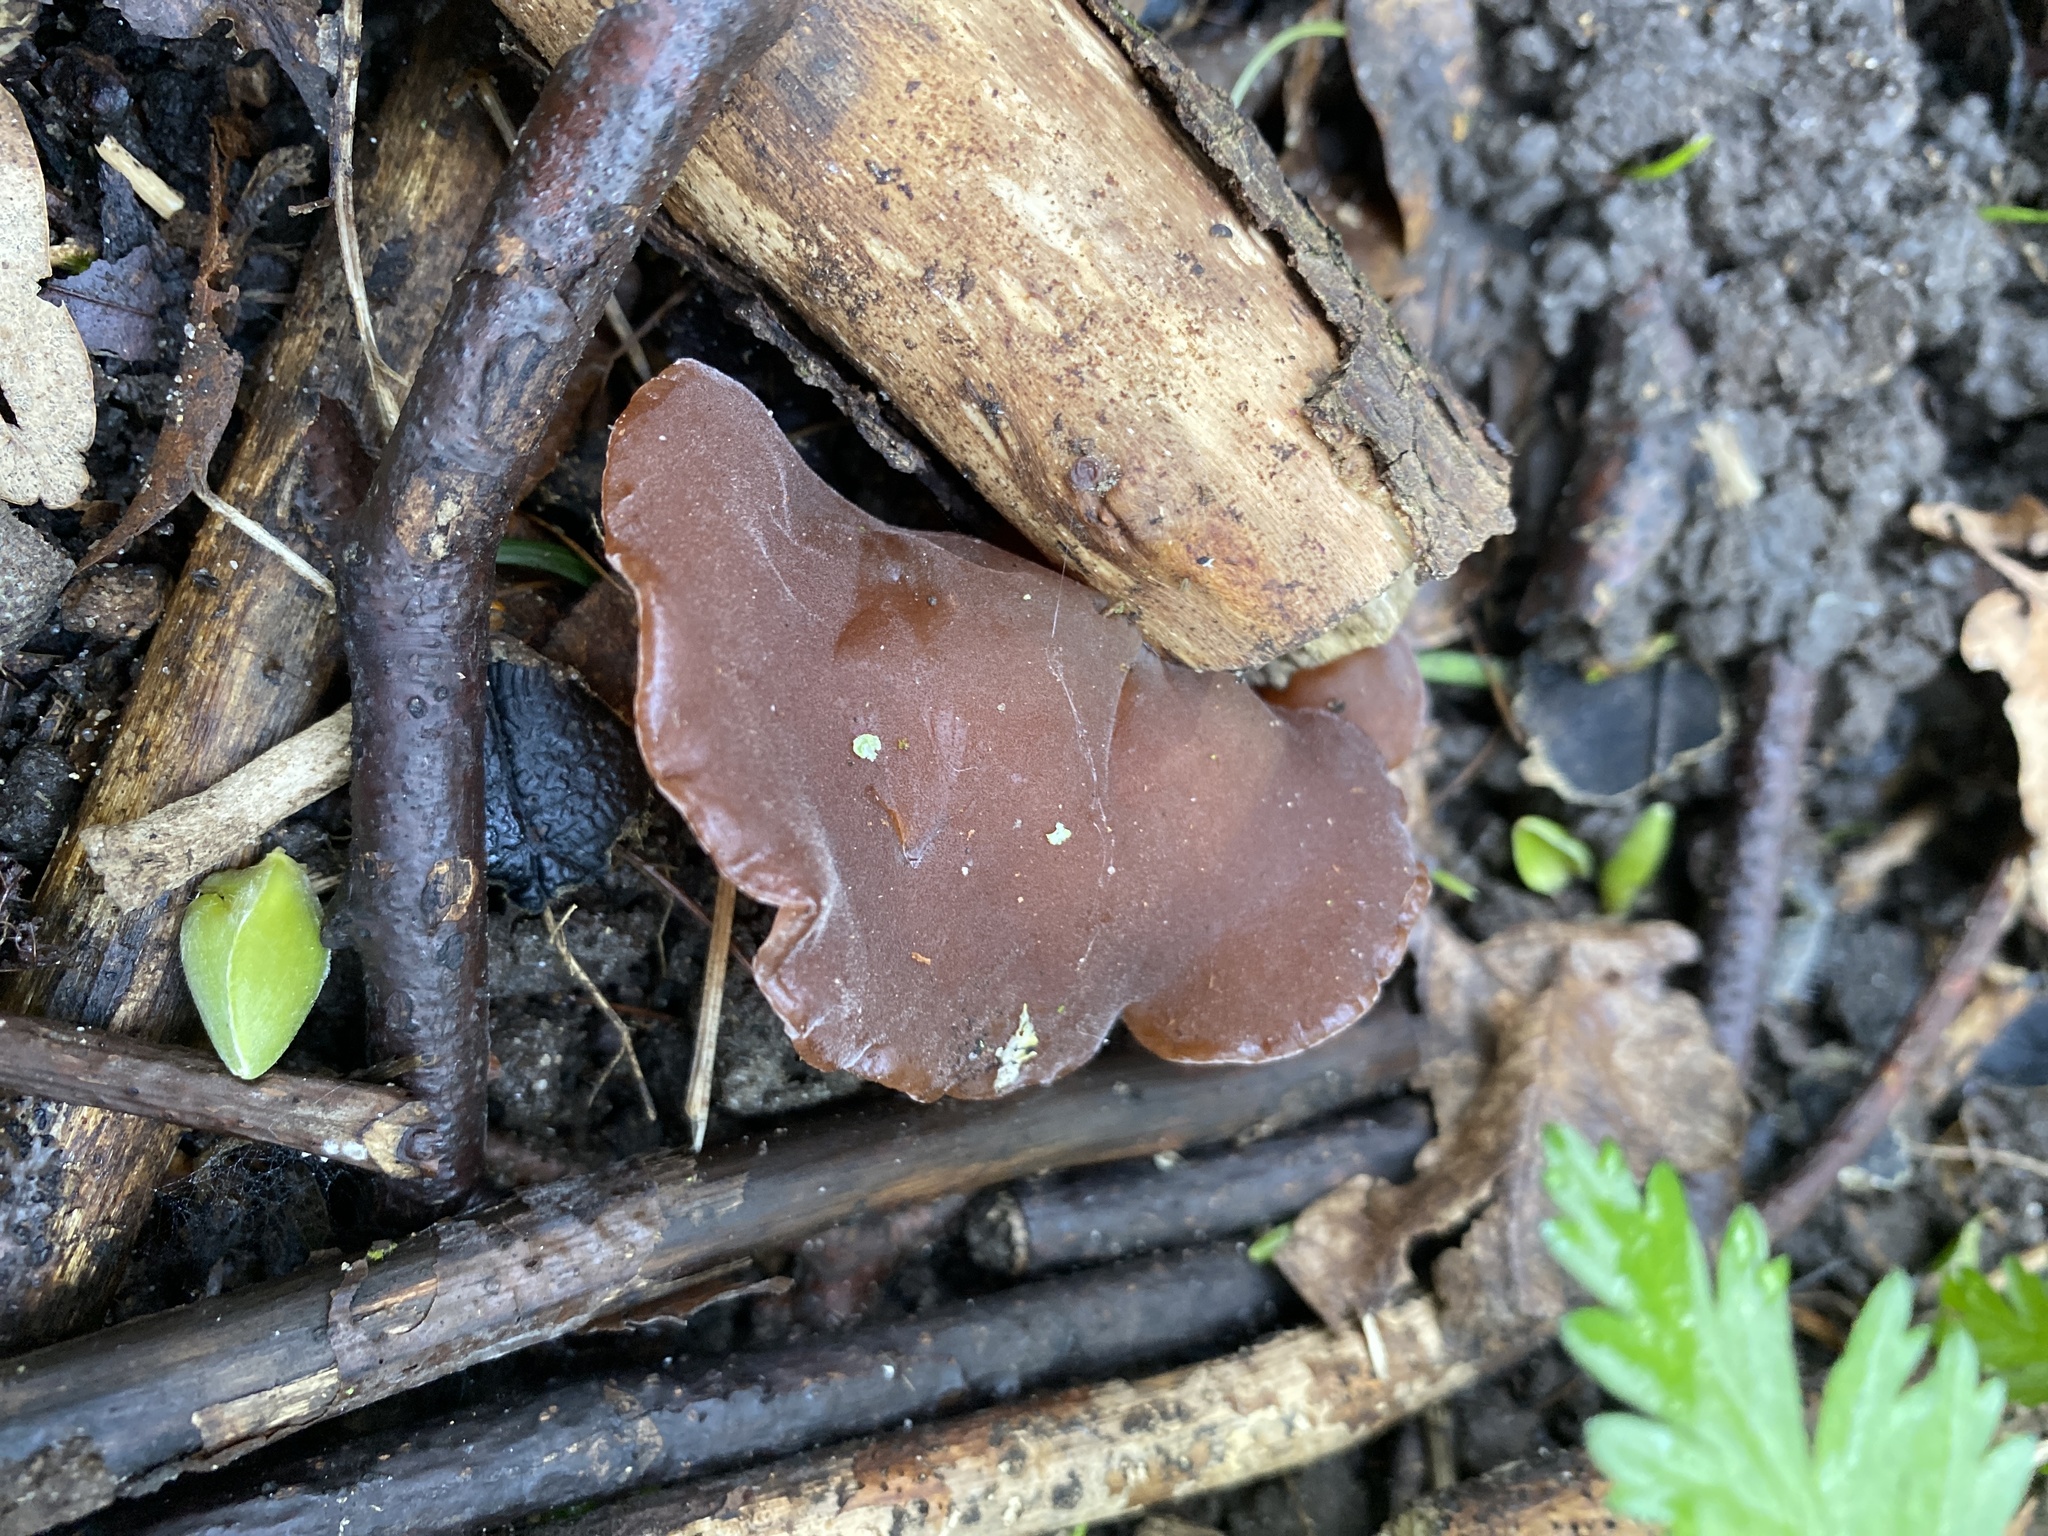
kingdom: Fungi
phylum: Basidiomycota
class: Agaricomycetes
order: Auriculariales
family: Auriculariaceae
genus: Auricularia
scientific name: Auricularia auricula-judae
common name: Jelly ear
